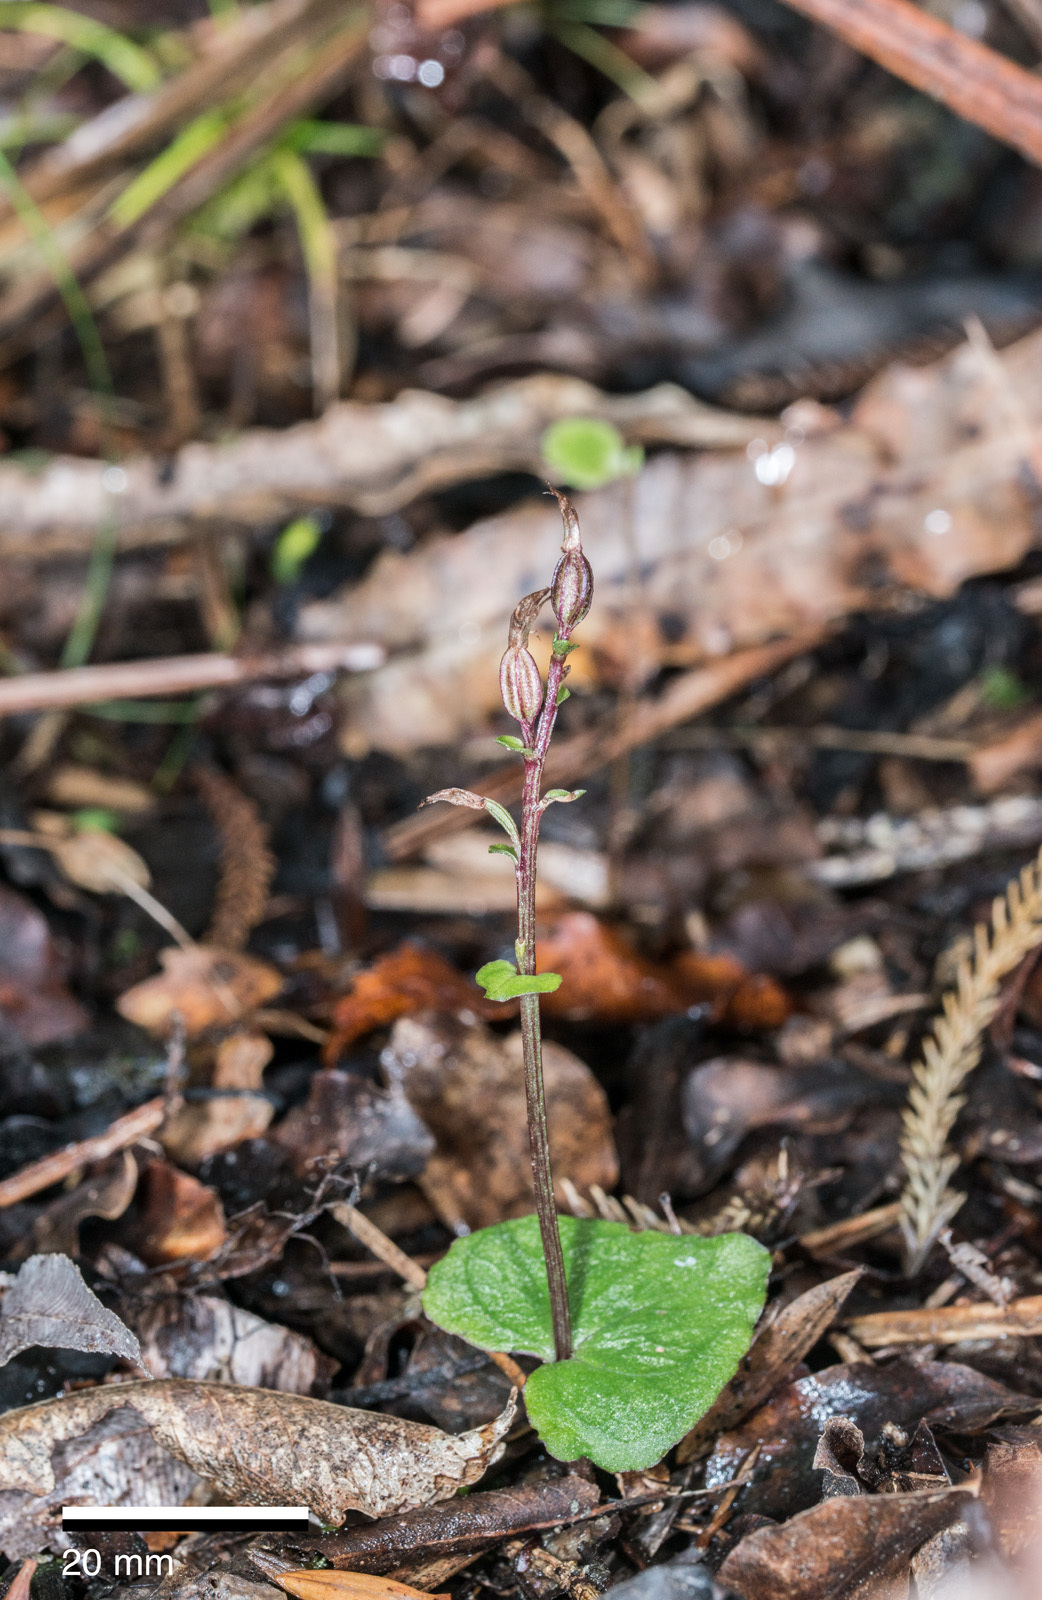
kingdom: Plantae
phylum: Tracheophyta
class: Liliopsida
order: Asparagales
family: Orchidaceae
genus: Acianthus
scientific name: Acianthus sinclairii
